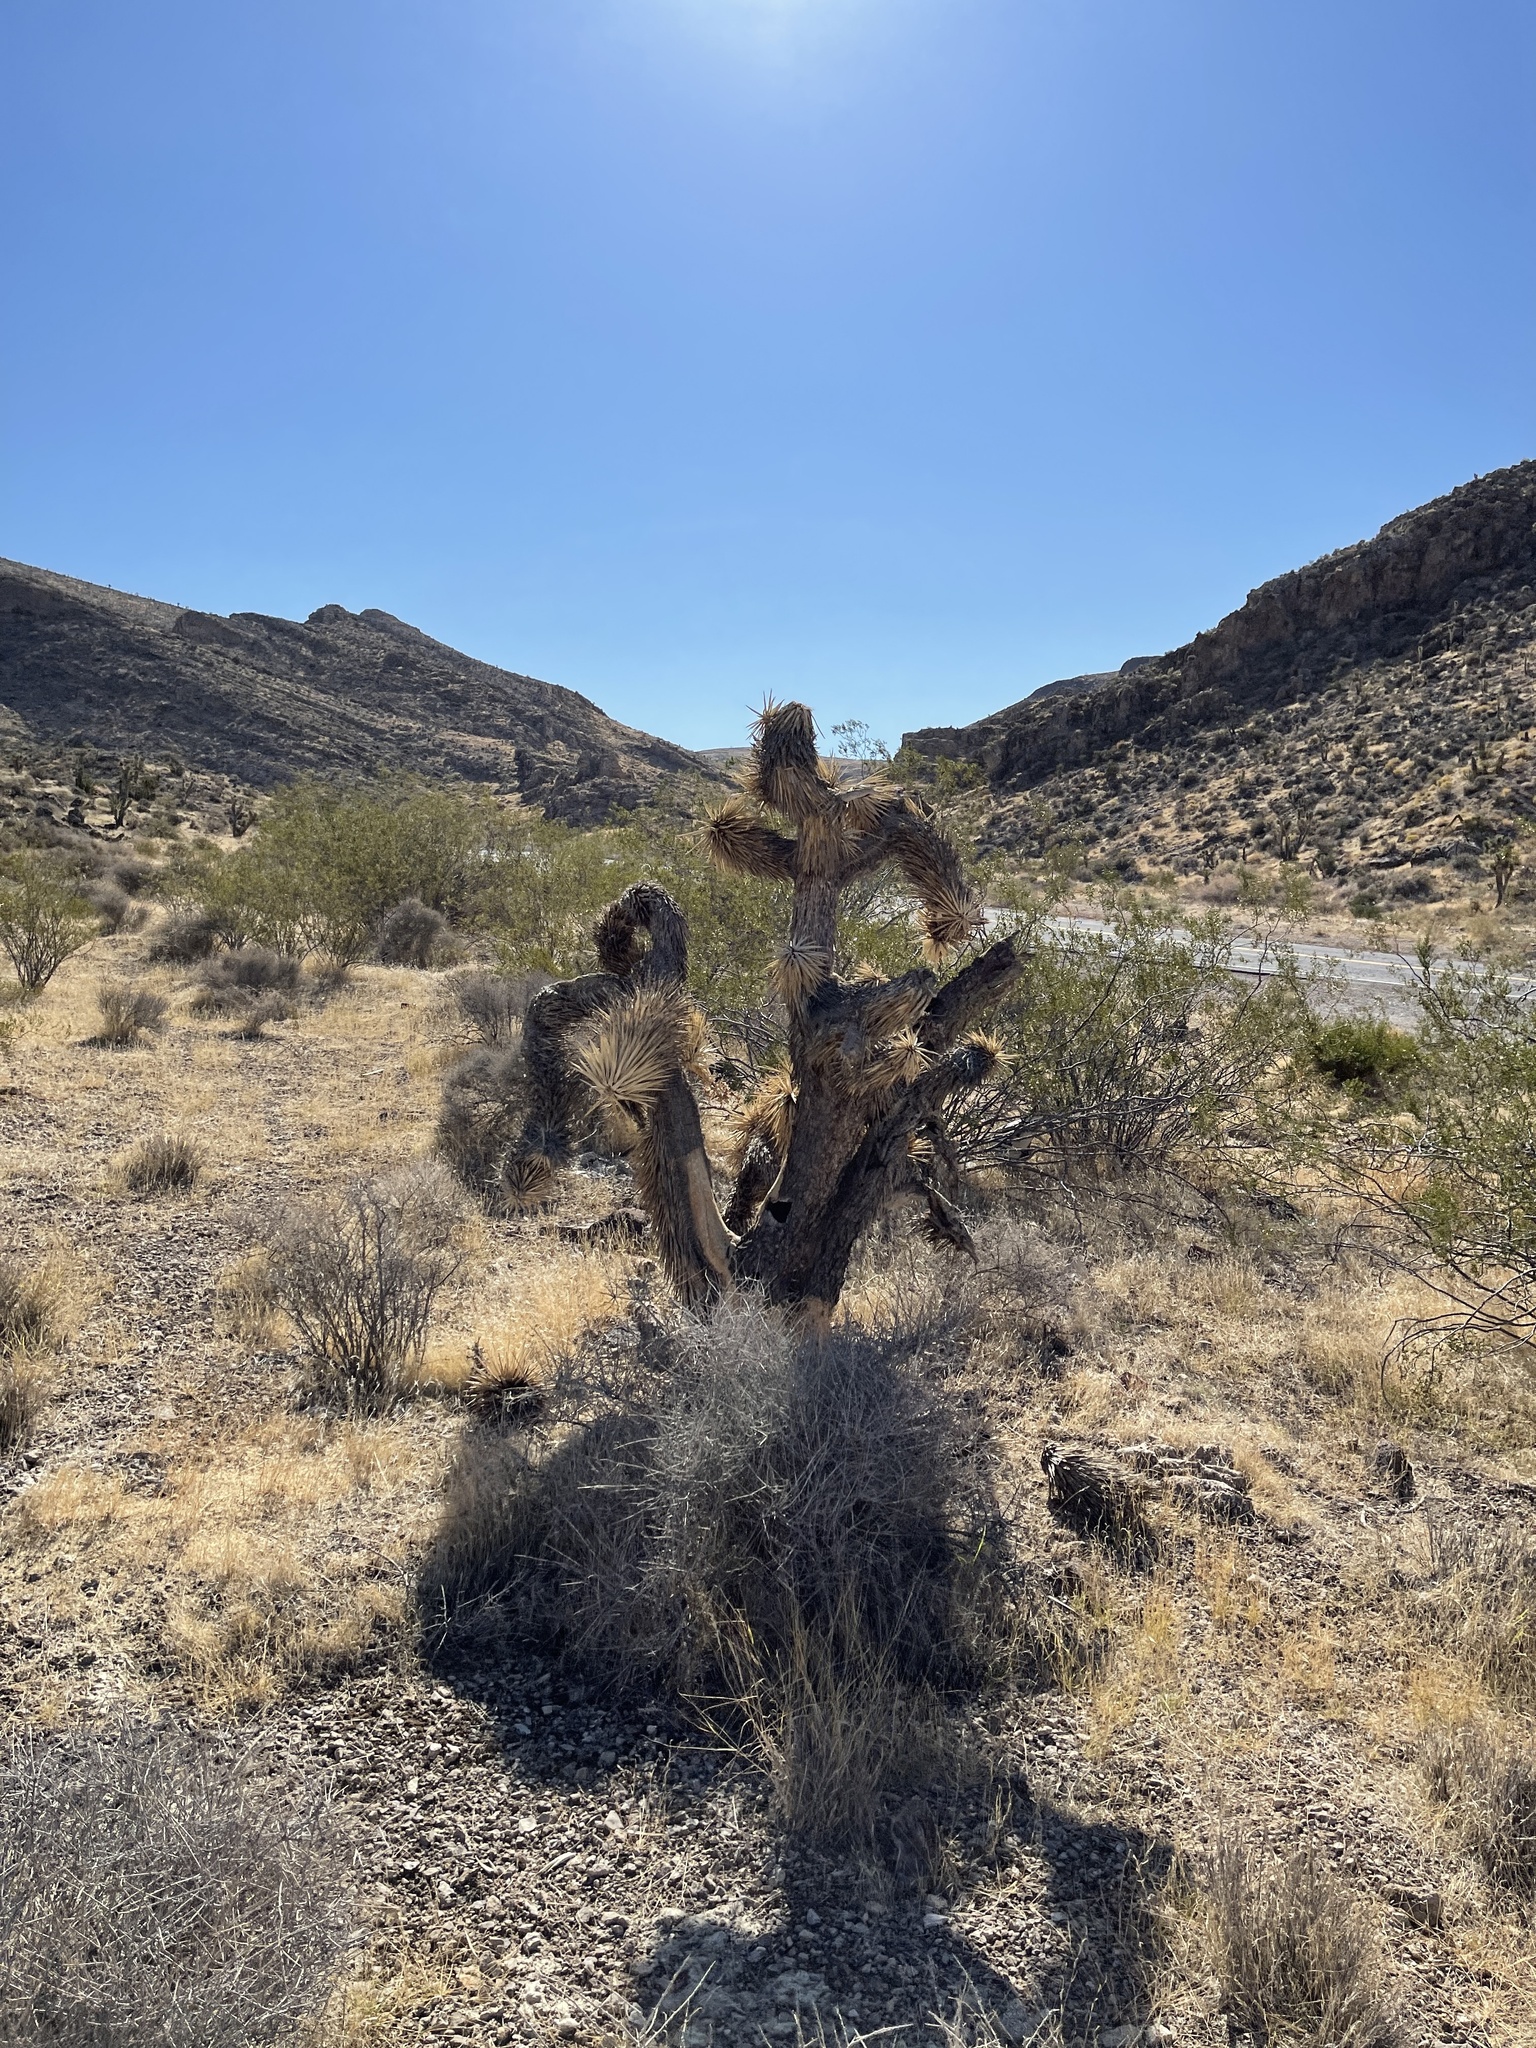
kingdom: Plantae
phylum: Tracheophyta
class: Liliopsida
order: Asparagales
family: Asparagaceae
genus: Yucca
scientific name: Yucca brevifolia
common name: Joshua tree
